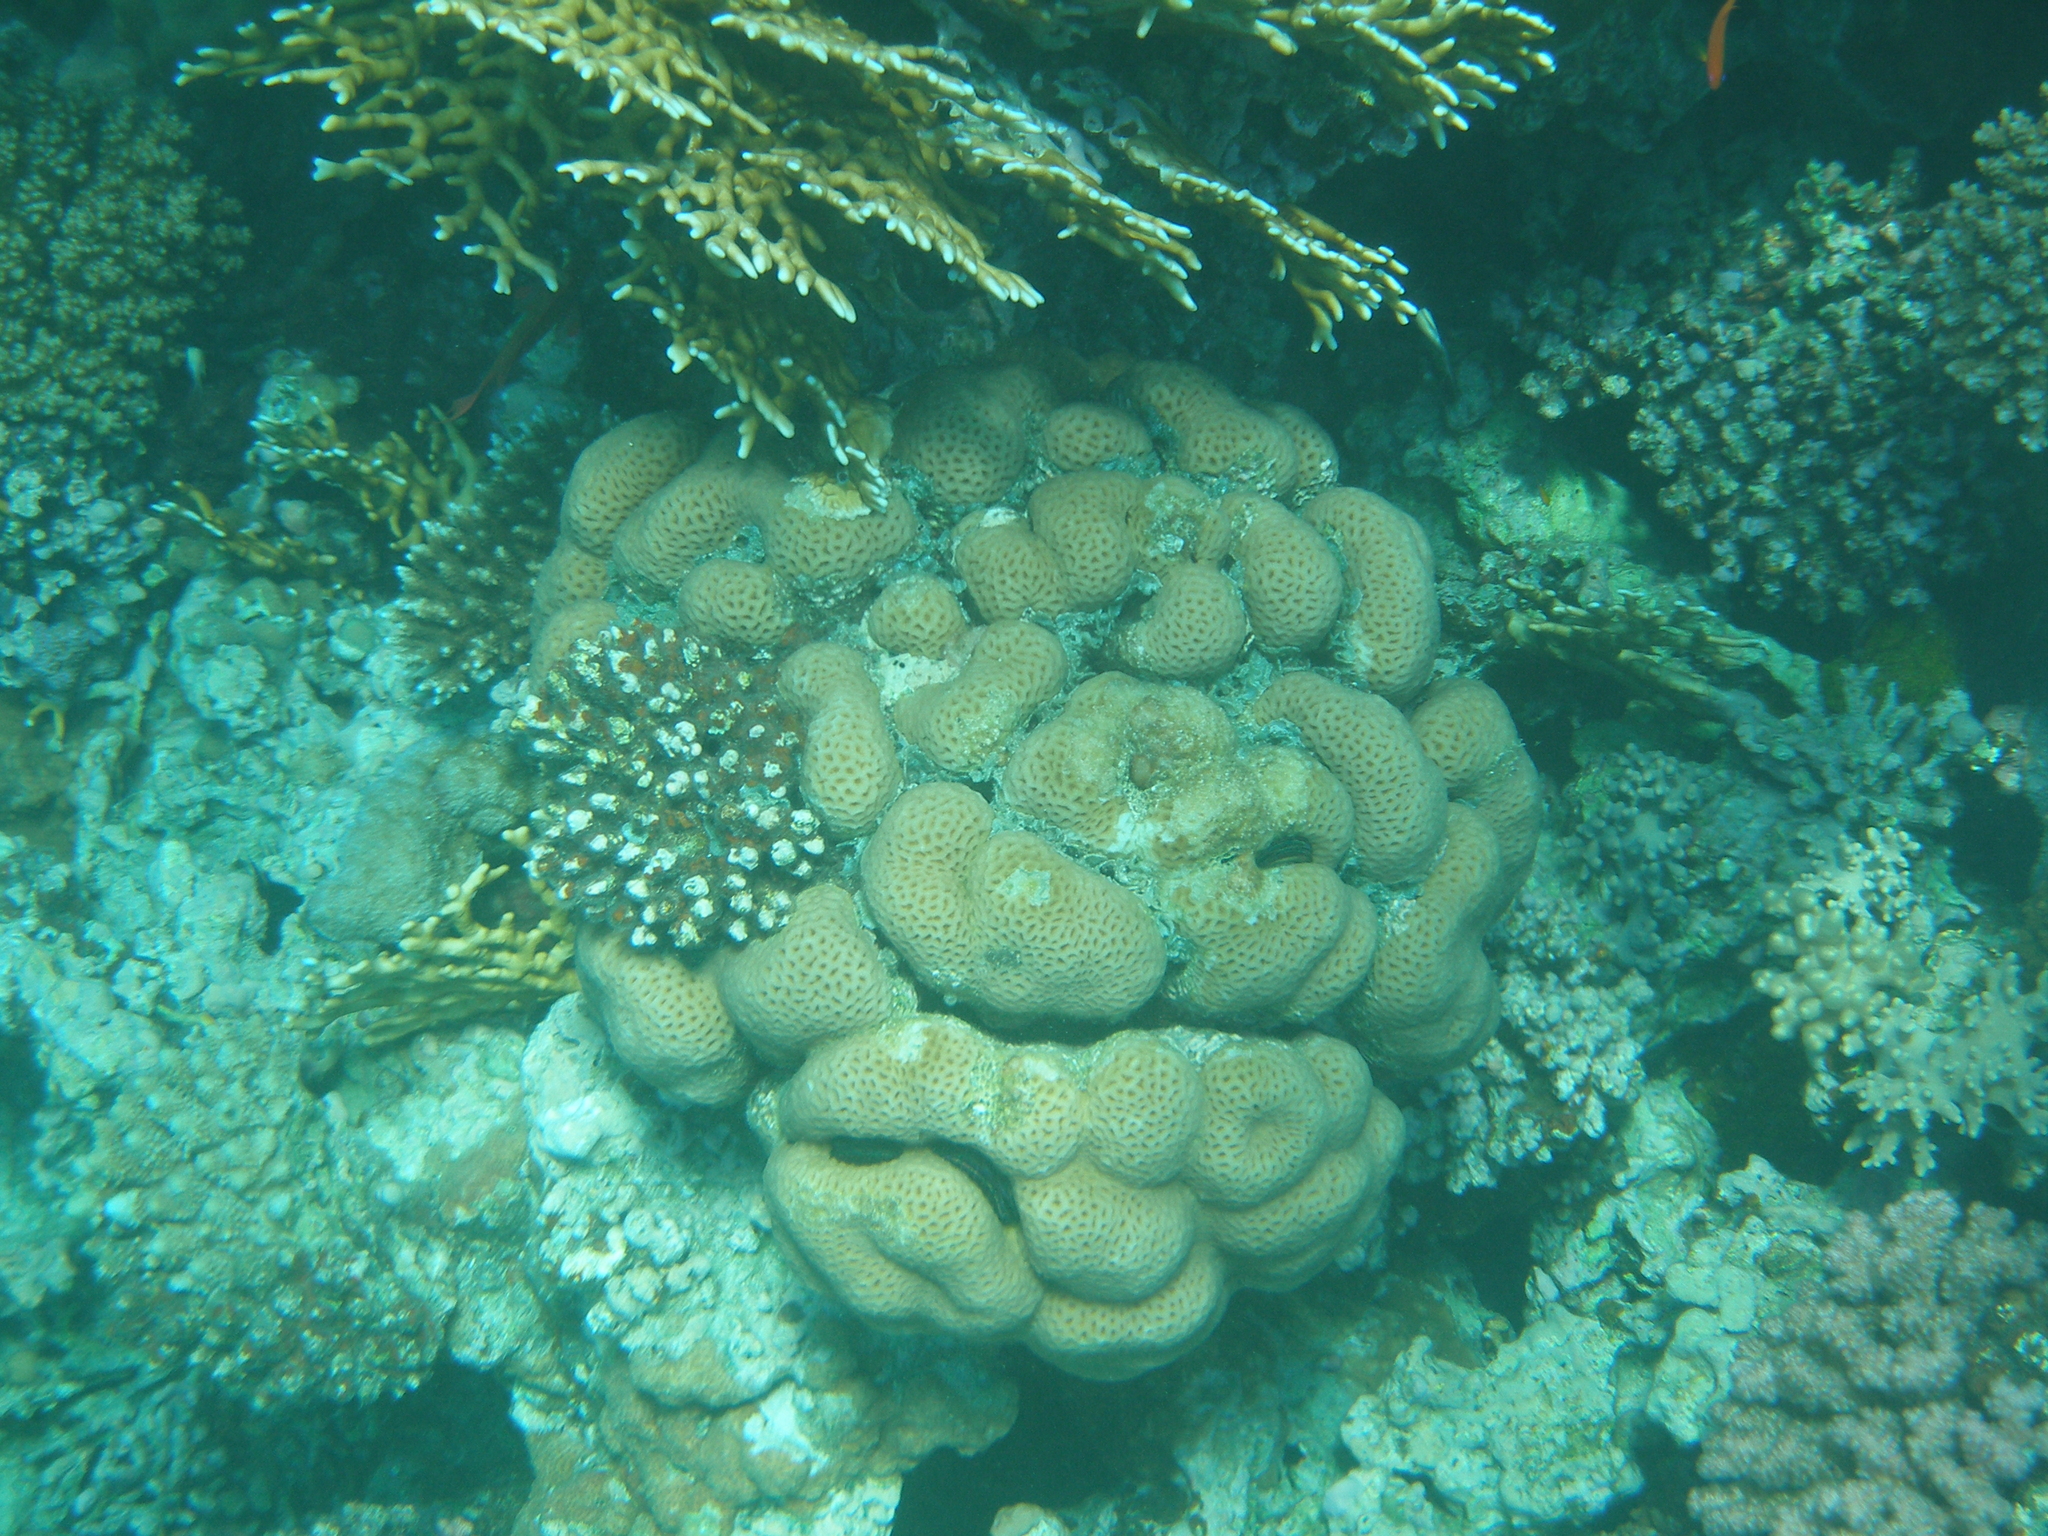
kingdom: Animalia
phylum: Cnidaria
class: Anthozoa
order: Scleractinia
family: Merulinidae
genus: Goniastrea
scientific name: Goniastrea pectinata
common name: Lesser star coral
